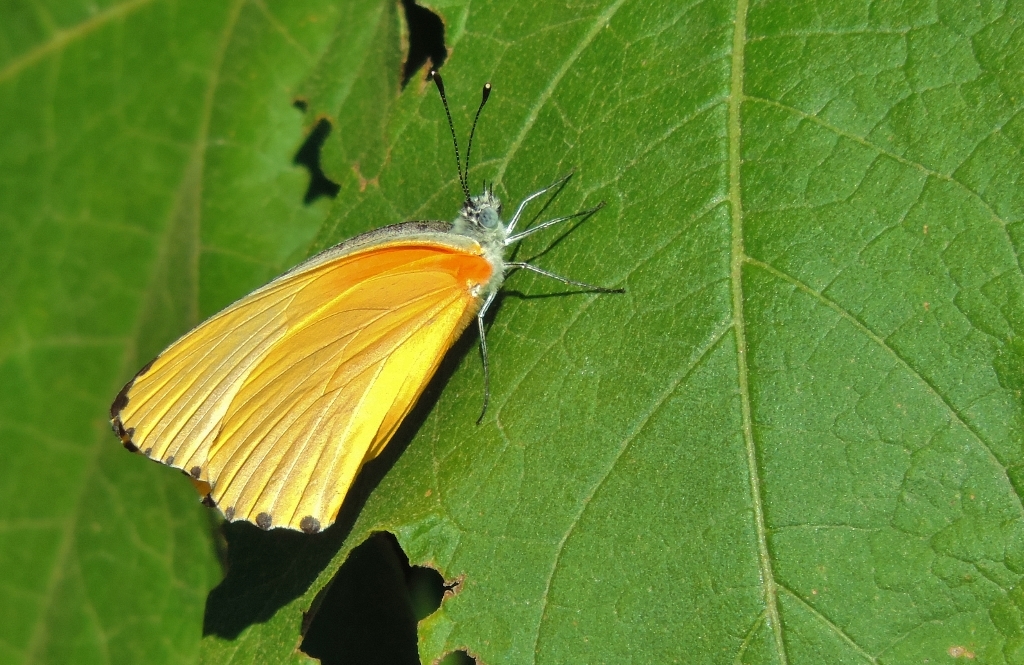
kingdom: Animalia
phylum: Arthropoda
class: Insecta
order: Lepidoptera
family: Pieridae
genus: Mylothris
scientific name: Mylothris agathina
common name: Eastern dotted border
